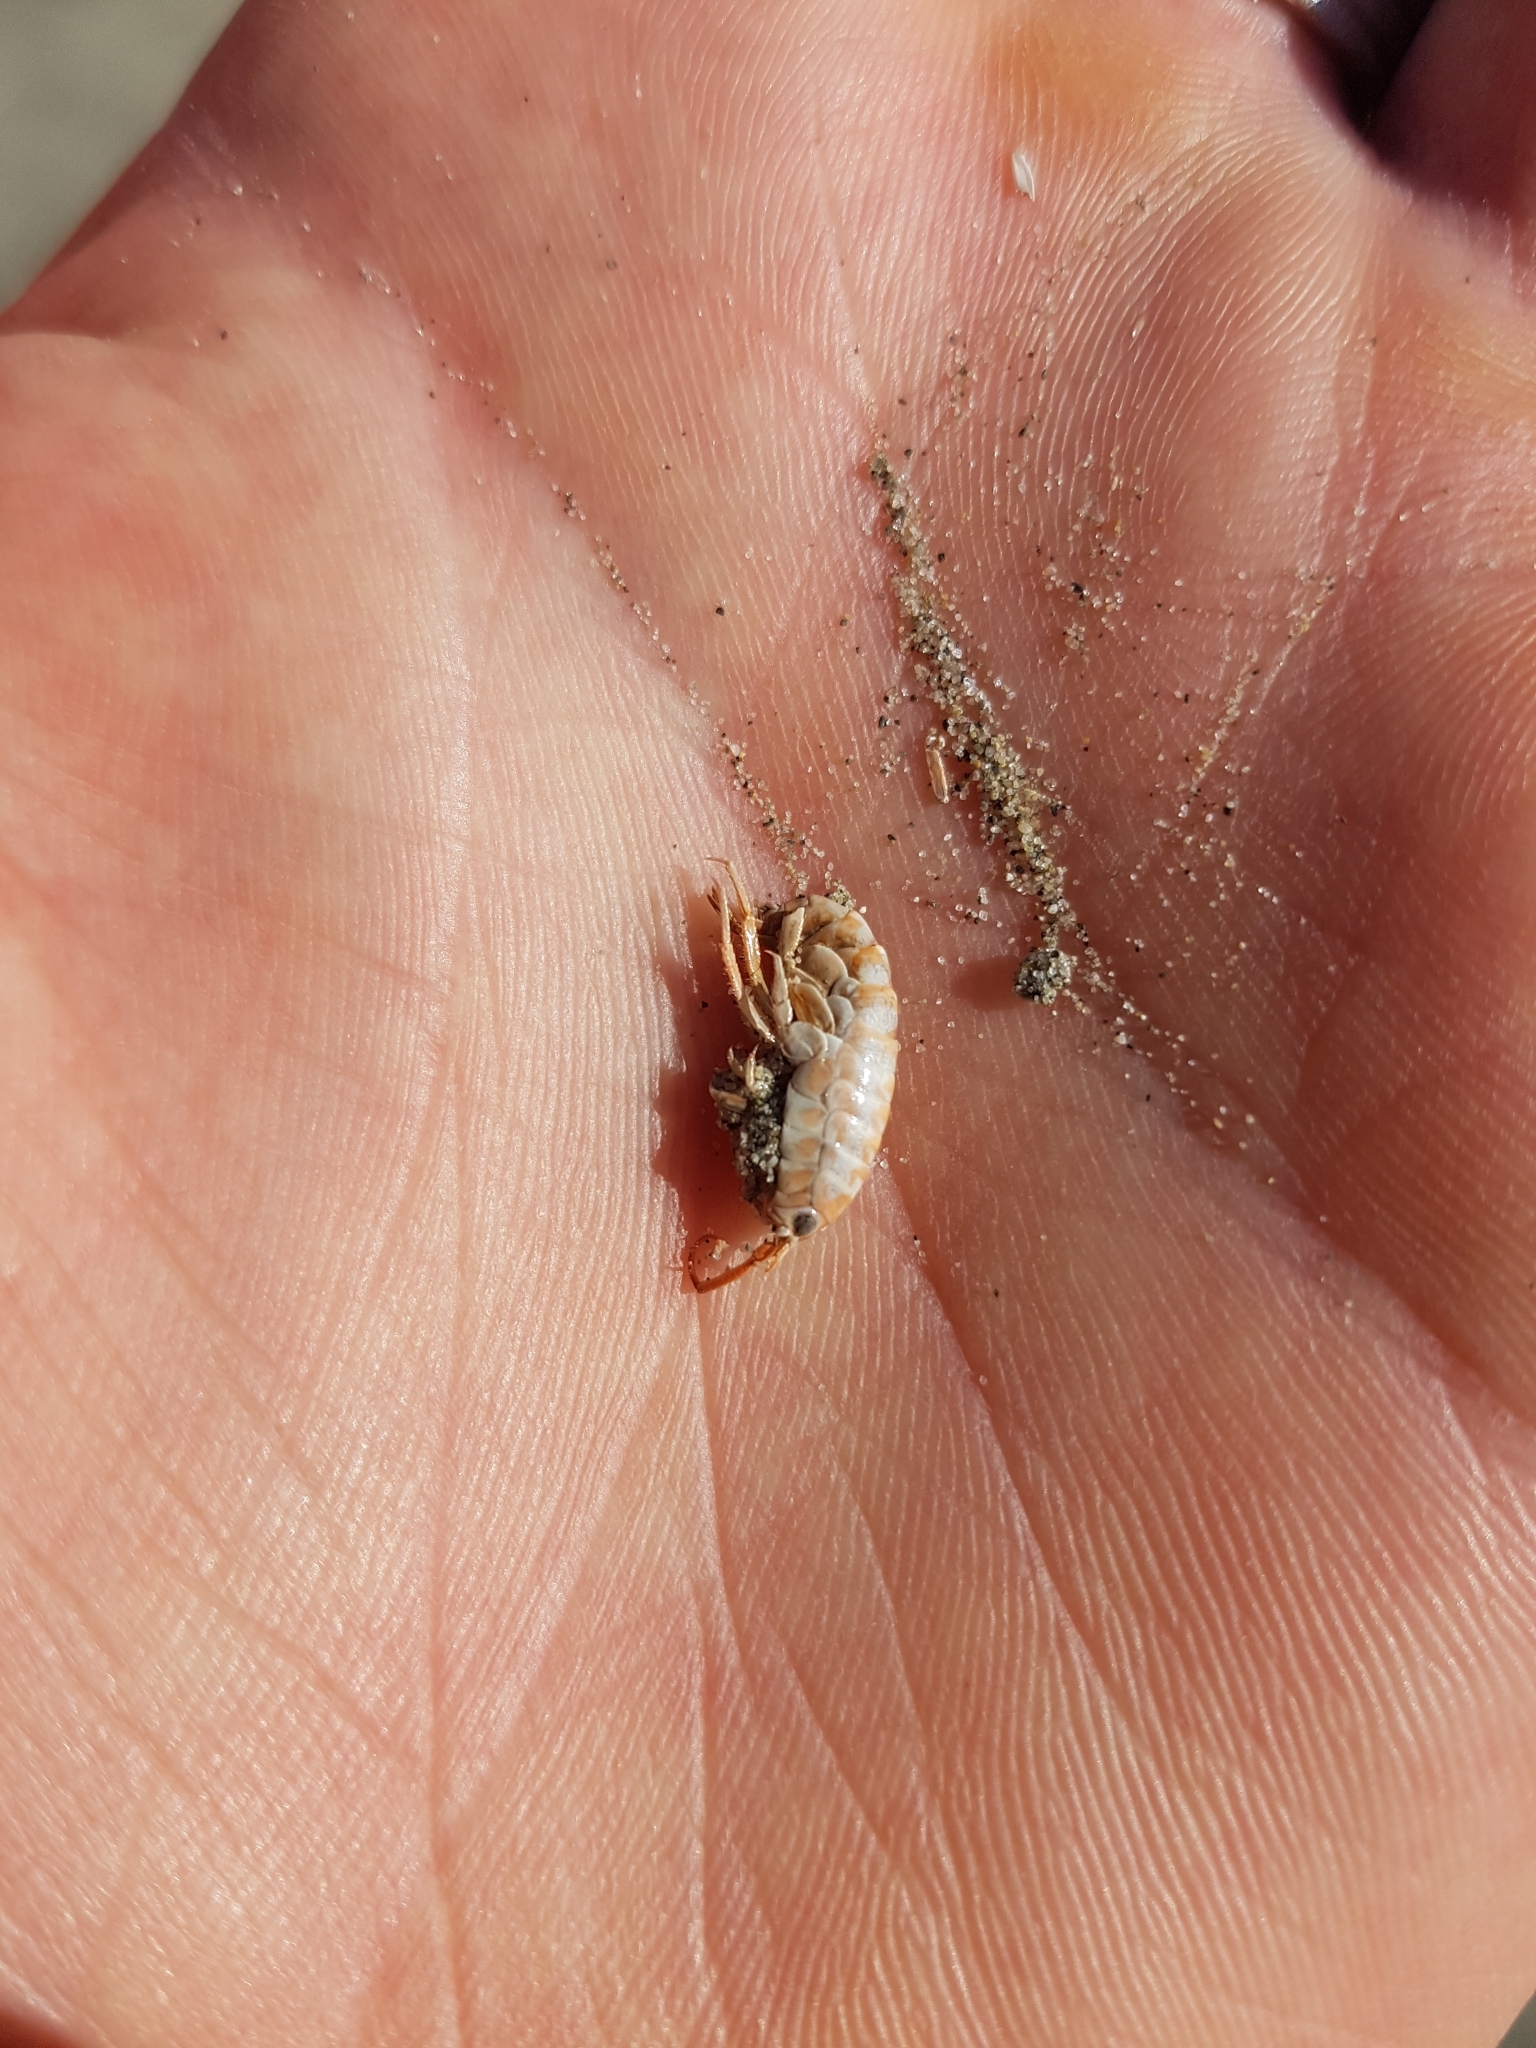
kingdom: Animalia
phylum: Arthropoda
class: Malacostraca
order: Amphipoda
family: Talitridae
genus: Bellorchestia
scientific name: Bellorchestia quoyana
